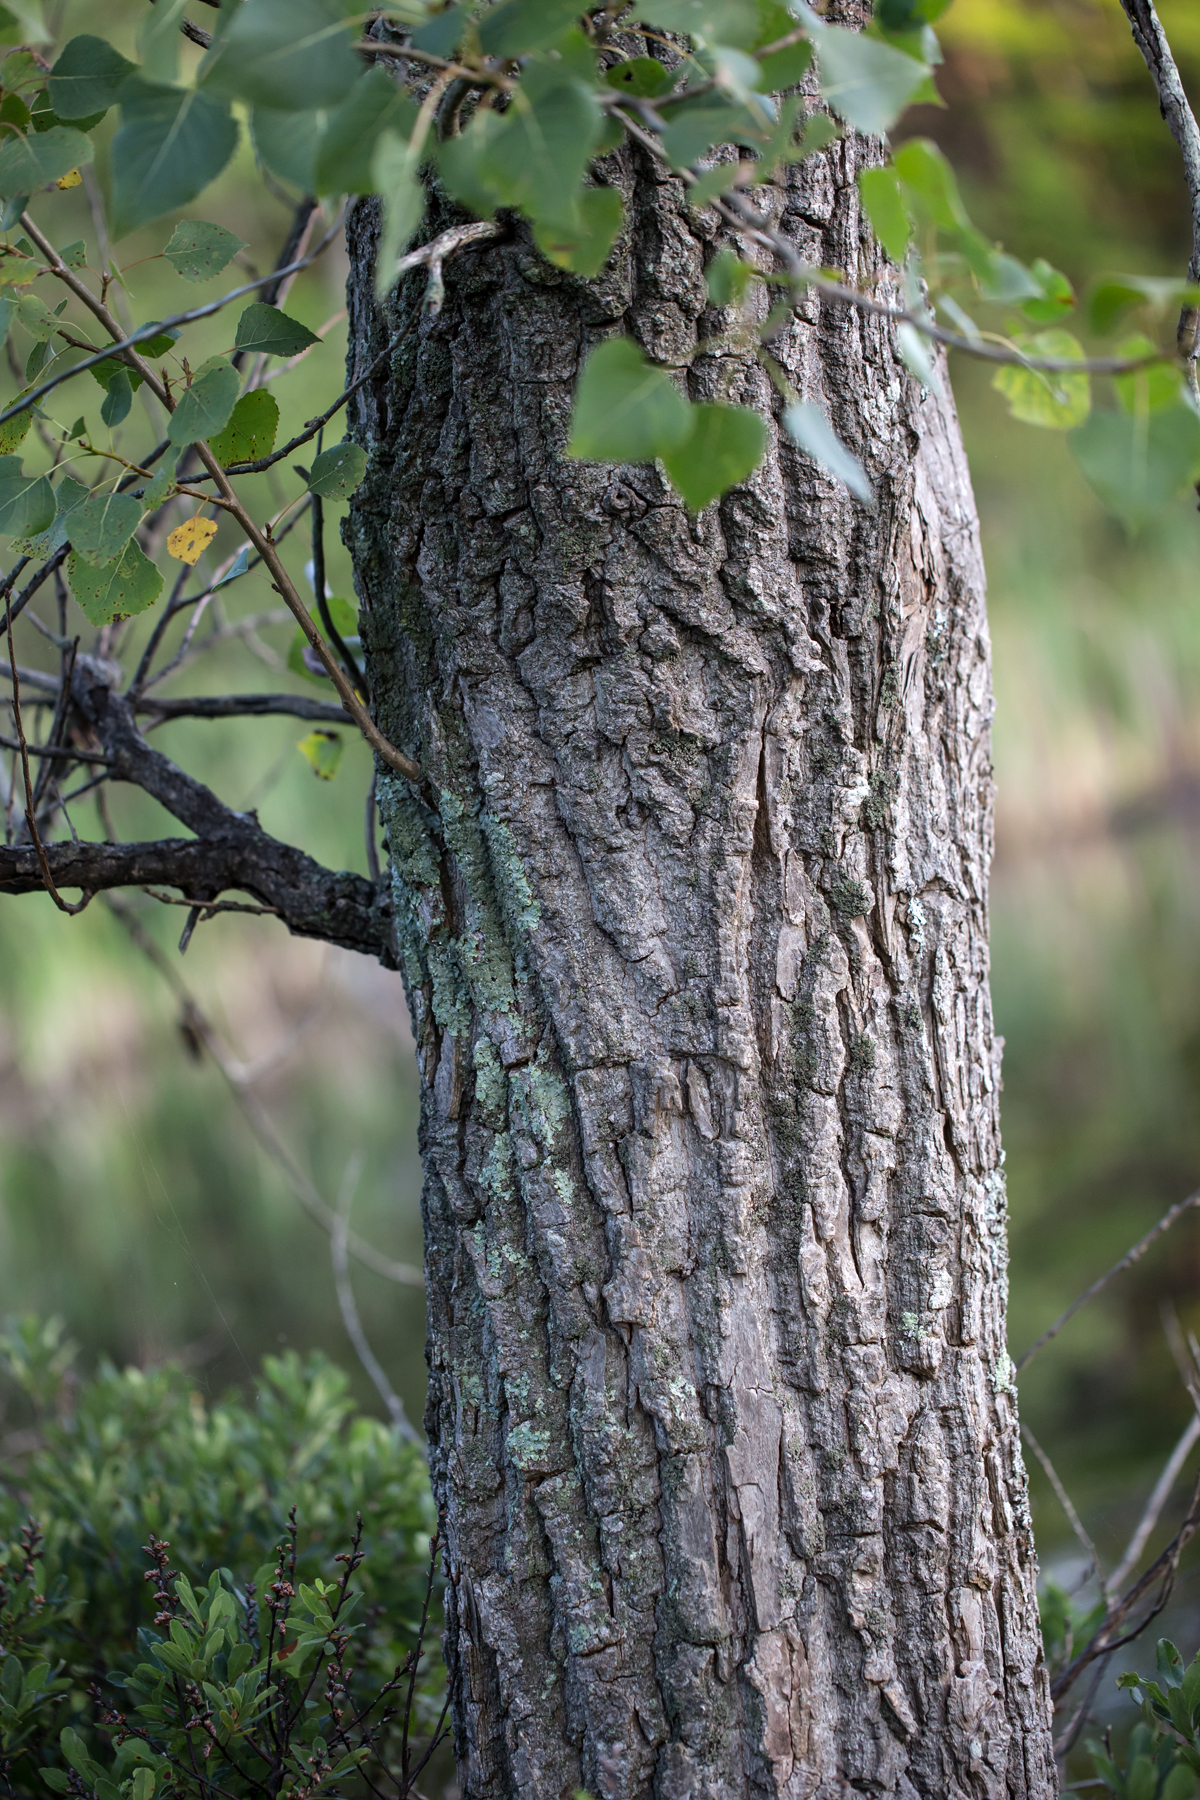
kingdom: Plantae
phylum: Tracheophyta
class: Magnoliopsida
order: Malpighiales
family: Salicaceae
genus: Populus
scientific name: Populus deltoides
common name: Eastern cottonwood
